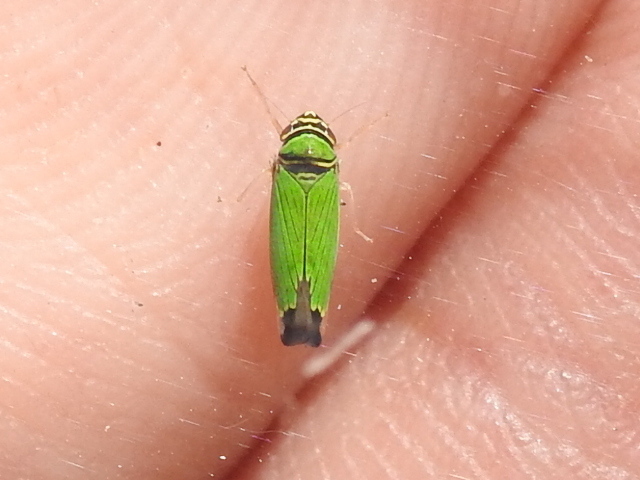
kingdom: Animalia
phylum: Arthropoda
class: Insecta
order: Hemiptera
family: Cicadellidae
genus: Tylozygus
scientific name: Tylozygus geometricus
